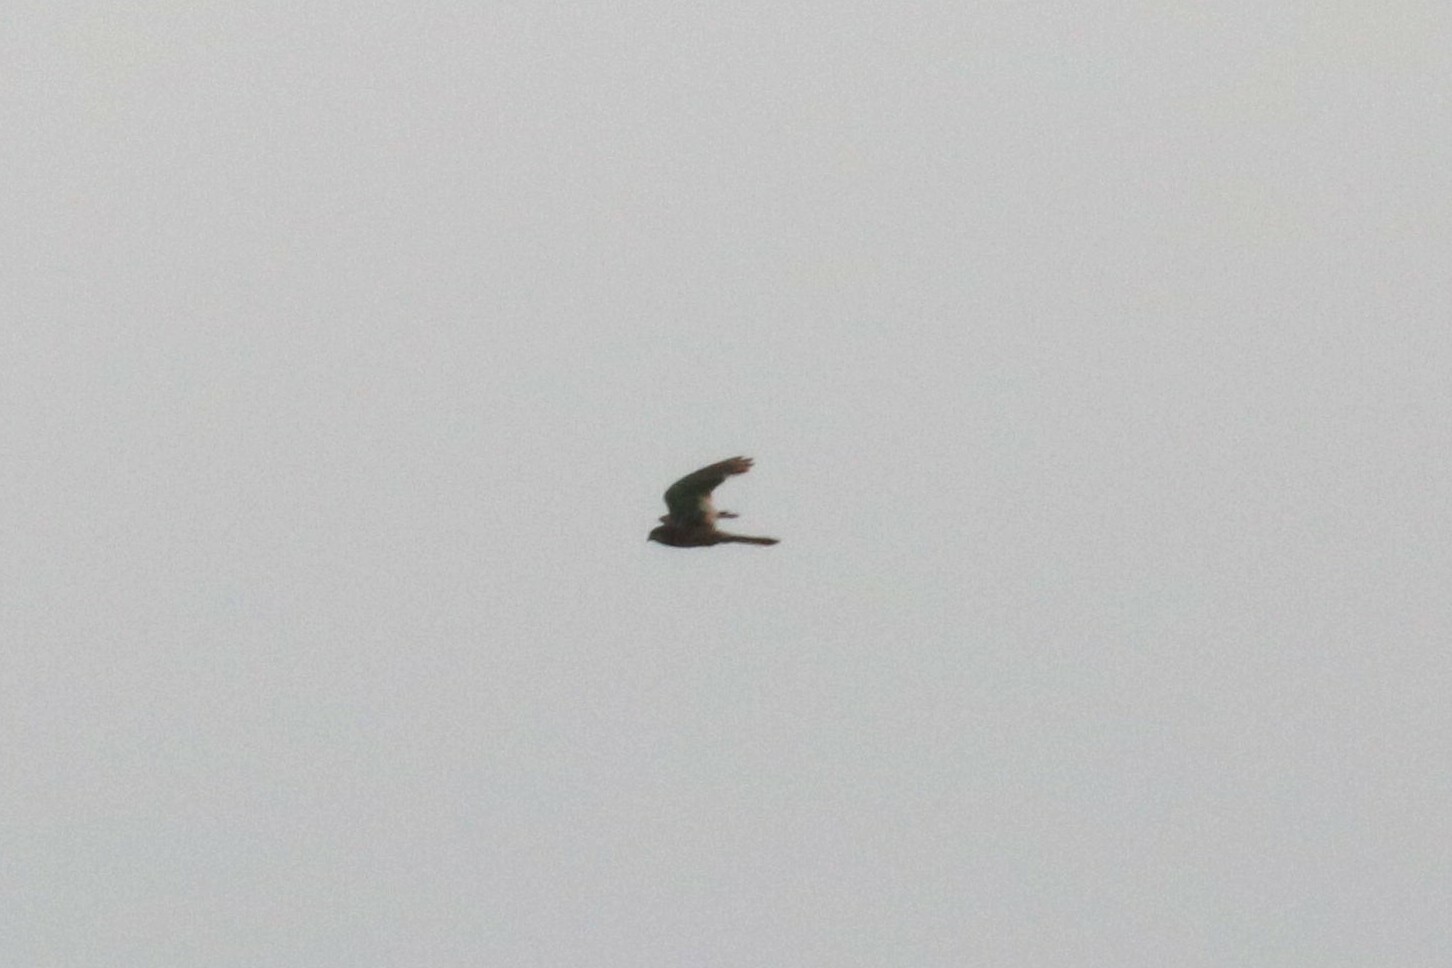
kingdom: Animalia
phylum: Chordata
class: Aves
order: Falconiformes
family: Falconidae
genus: Falco
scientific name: Falco tinnunculus
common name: Common kestrel
